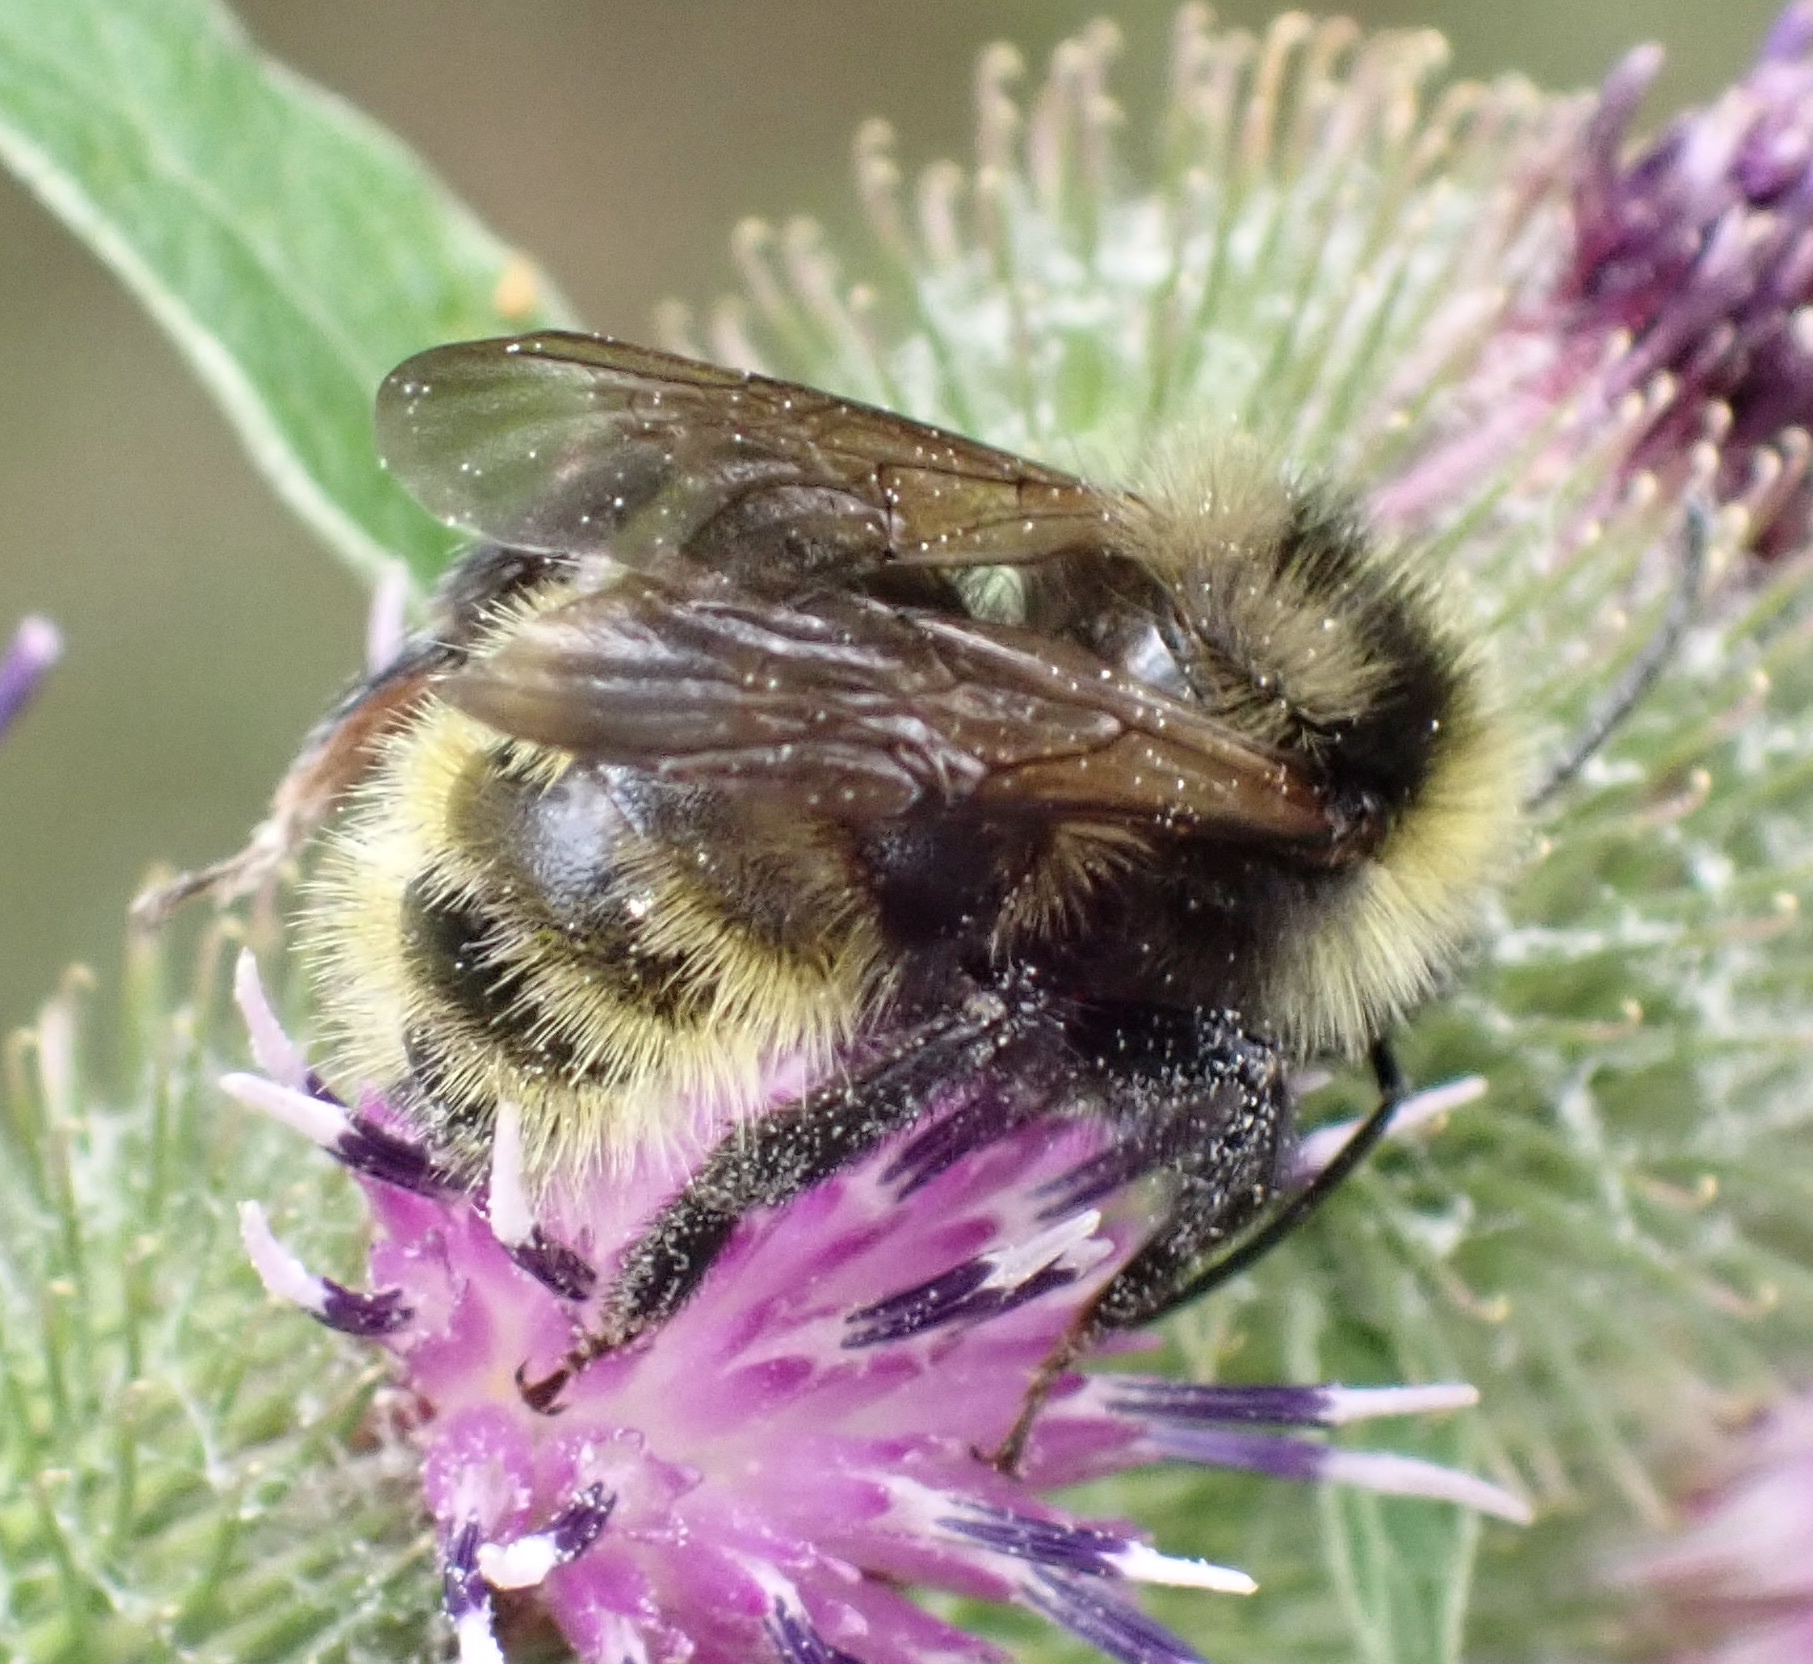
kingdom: Animalia
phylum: Arthropoda
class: Insecta
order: Hymenoptera
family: Apidae
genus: Bombus
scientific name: Bombus campestris
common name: Field cuckoo-bee
